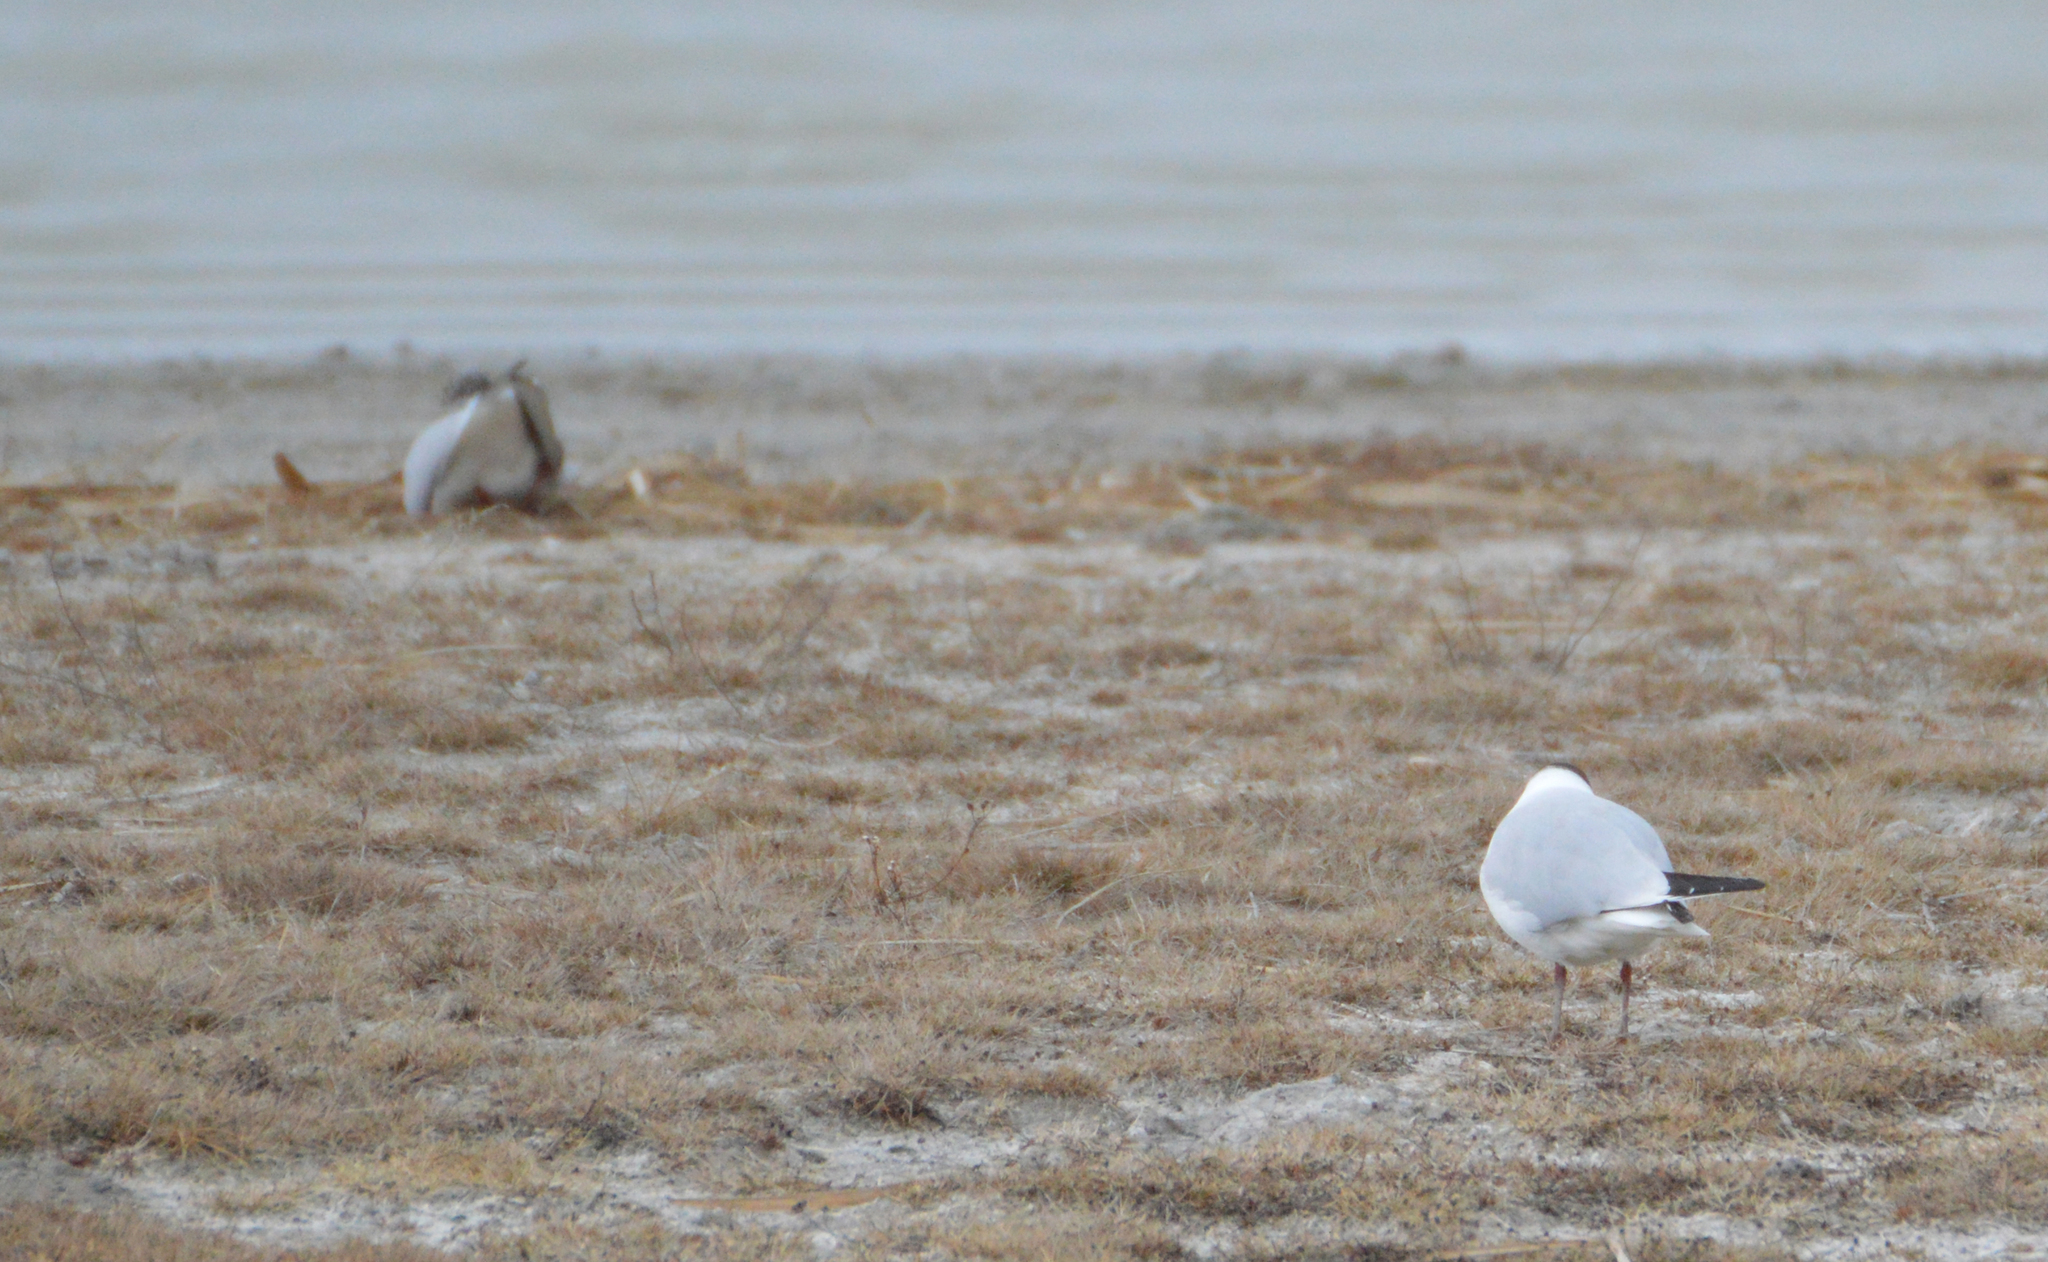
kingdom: Animalia
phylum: Chordata
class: Aves
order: Charadriiformes
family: Laridae
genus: Chroicocephalus
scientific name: Chroicocephalus ridibundus
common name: Black-headed gull
